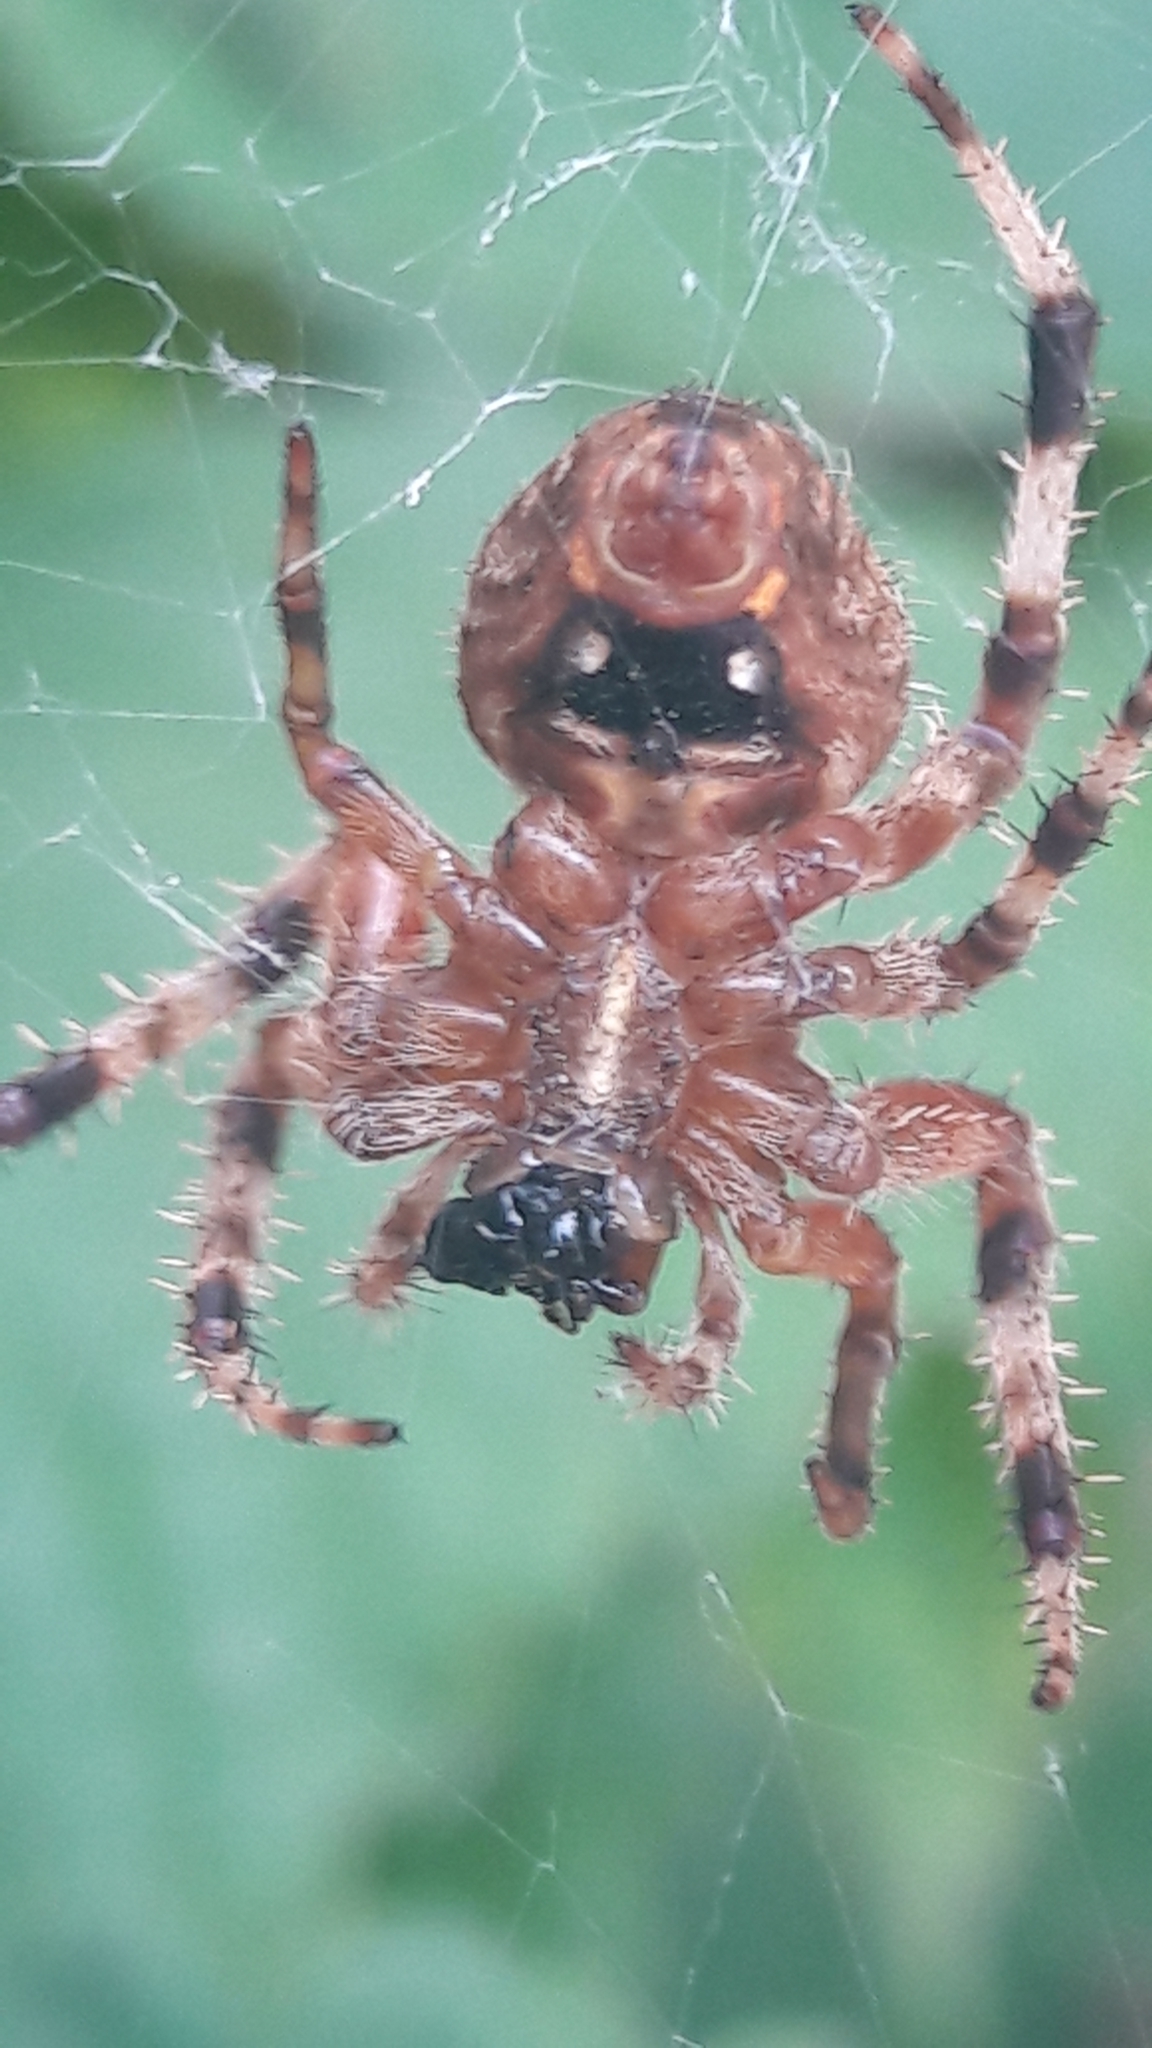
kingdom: Animalia
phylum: Arthropoda
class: Arachnida
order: Araneae
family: Araneidae
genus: Neoscona
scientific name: Neoscona crucifera
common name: Spotted orbweaver
